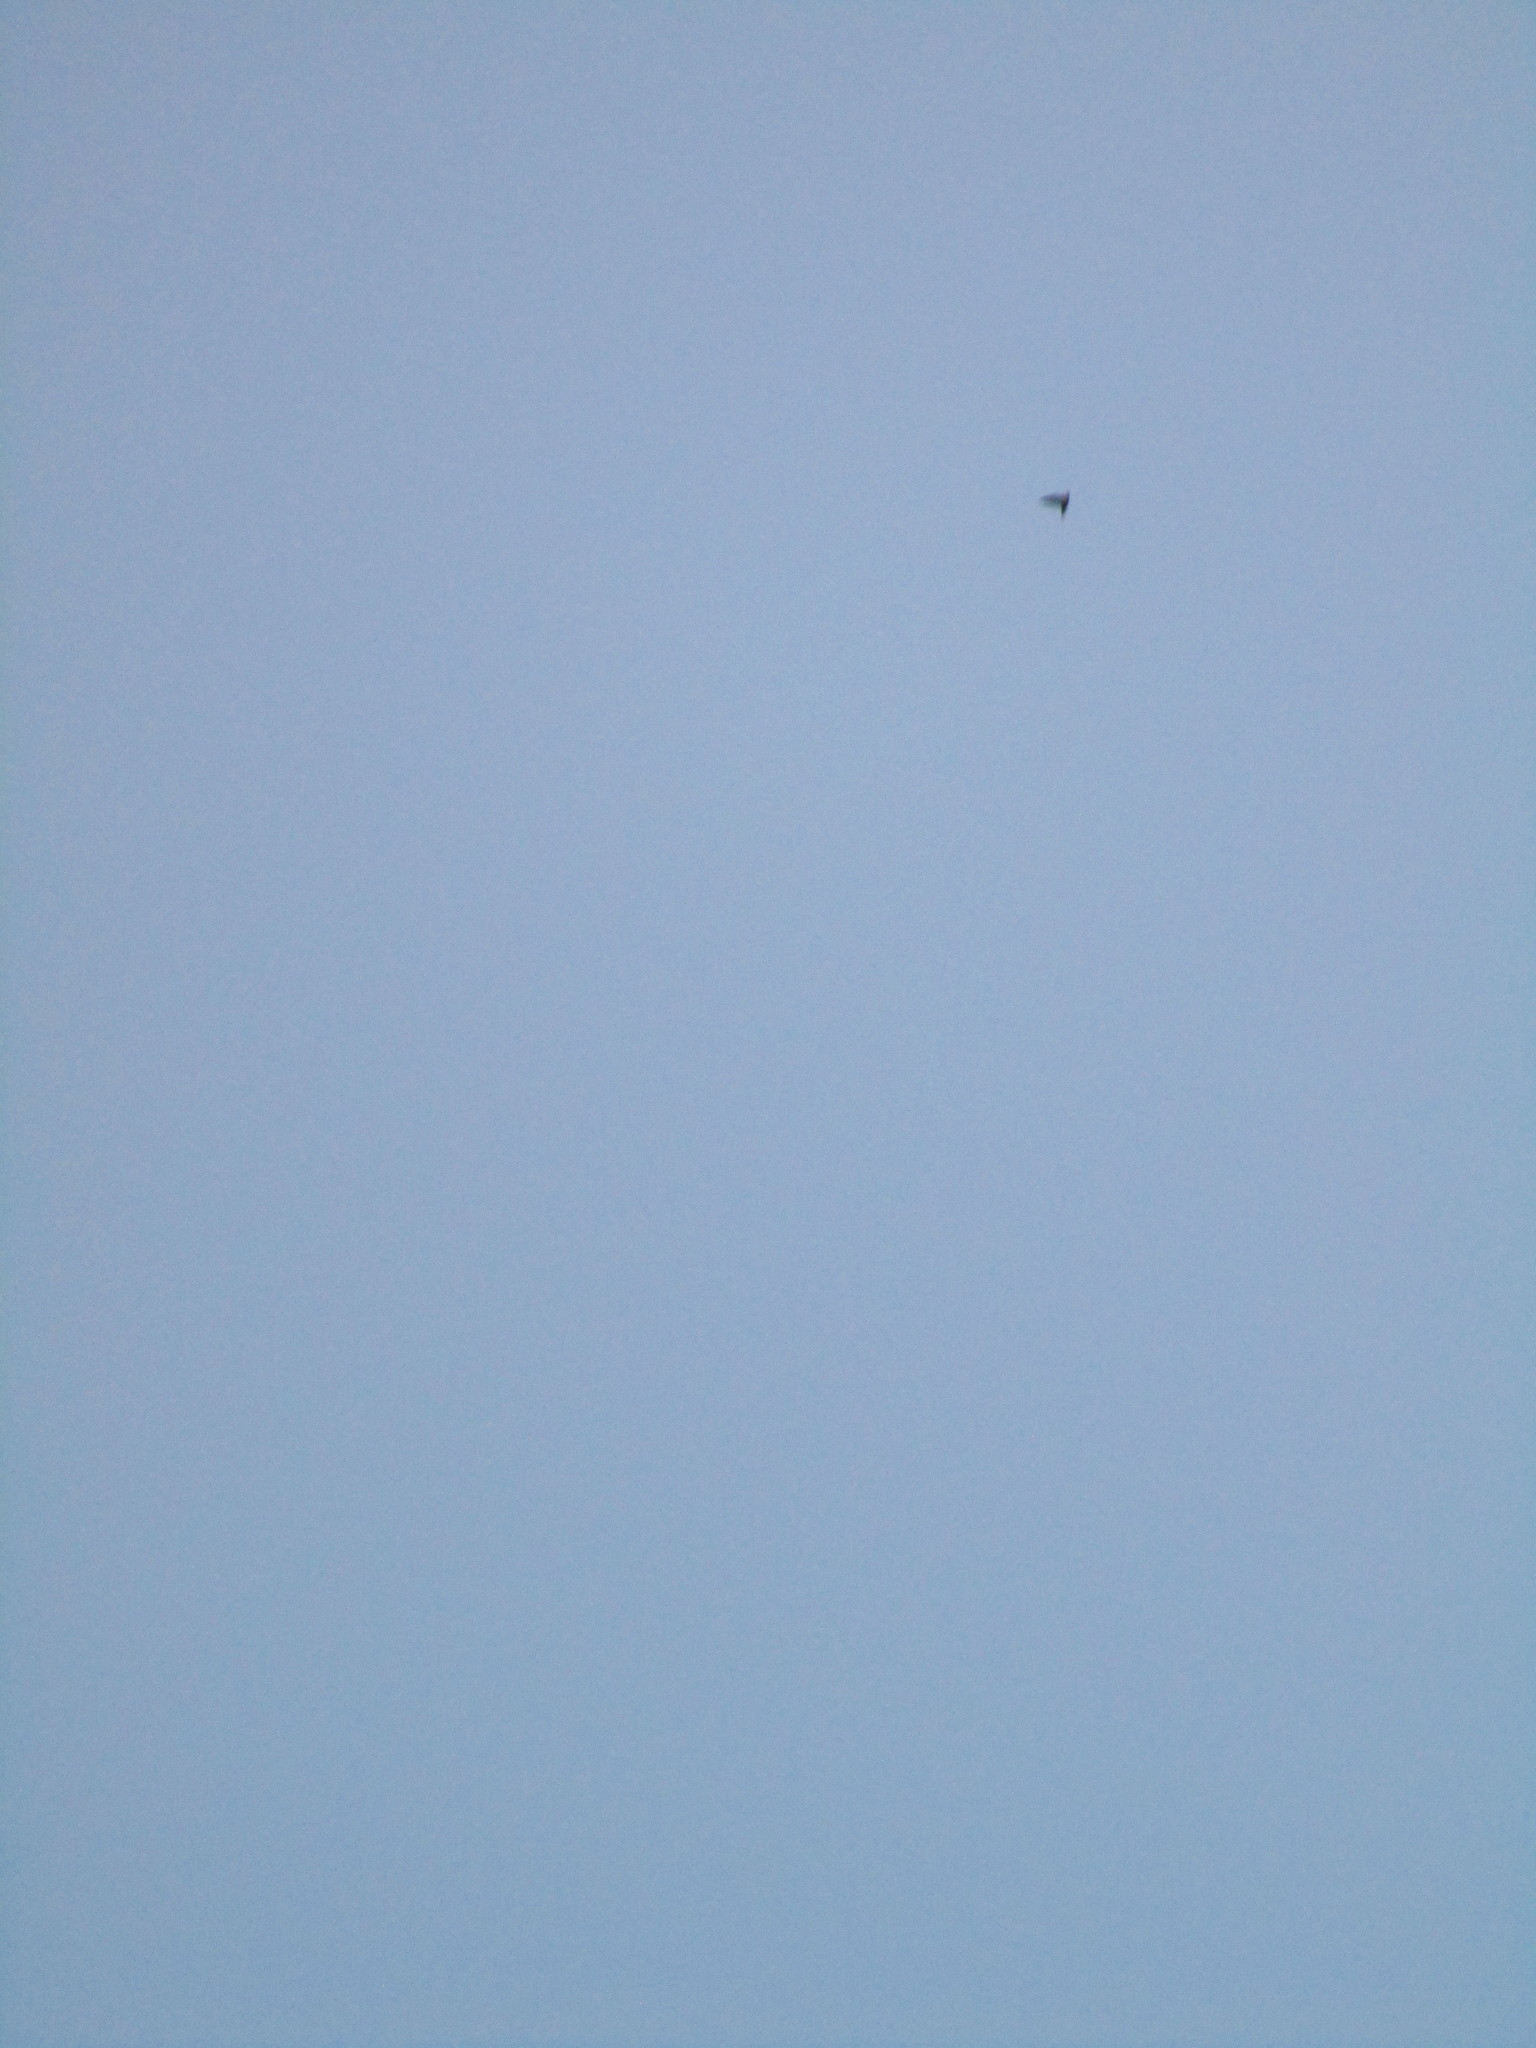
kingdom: Animalia
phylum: Chordata
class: Aves
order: Apodiformes
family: Apodidae
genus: Chaetura
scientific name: Chaetura pelagica
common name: Chimney swift
